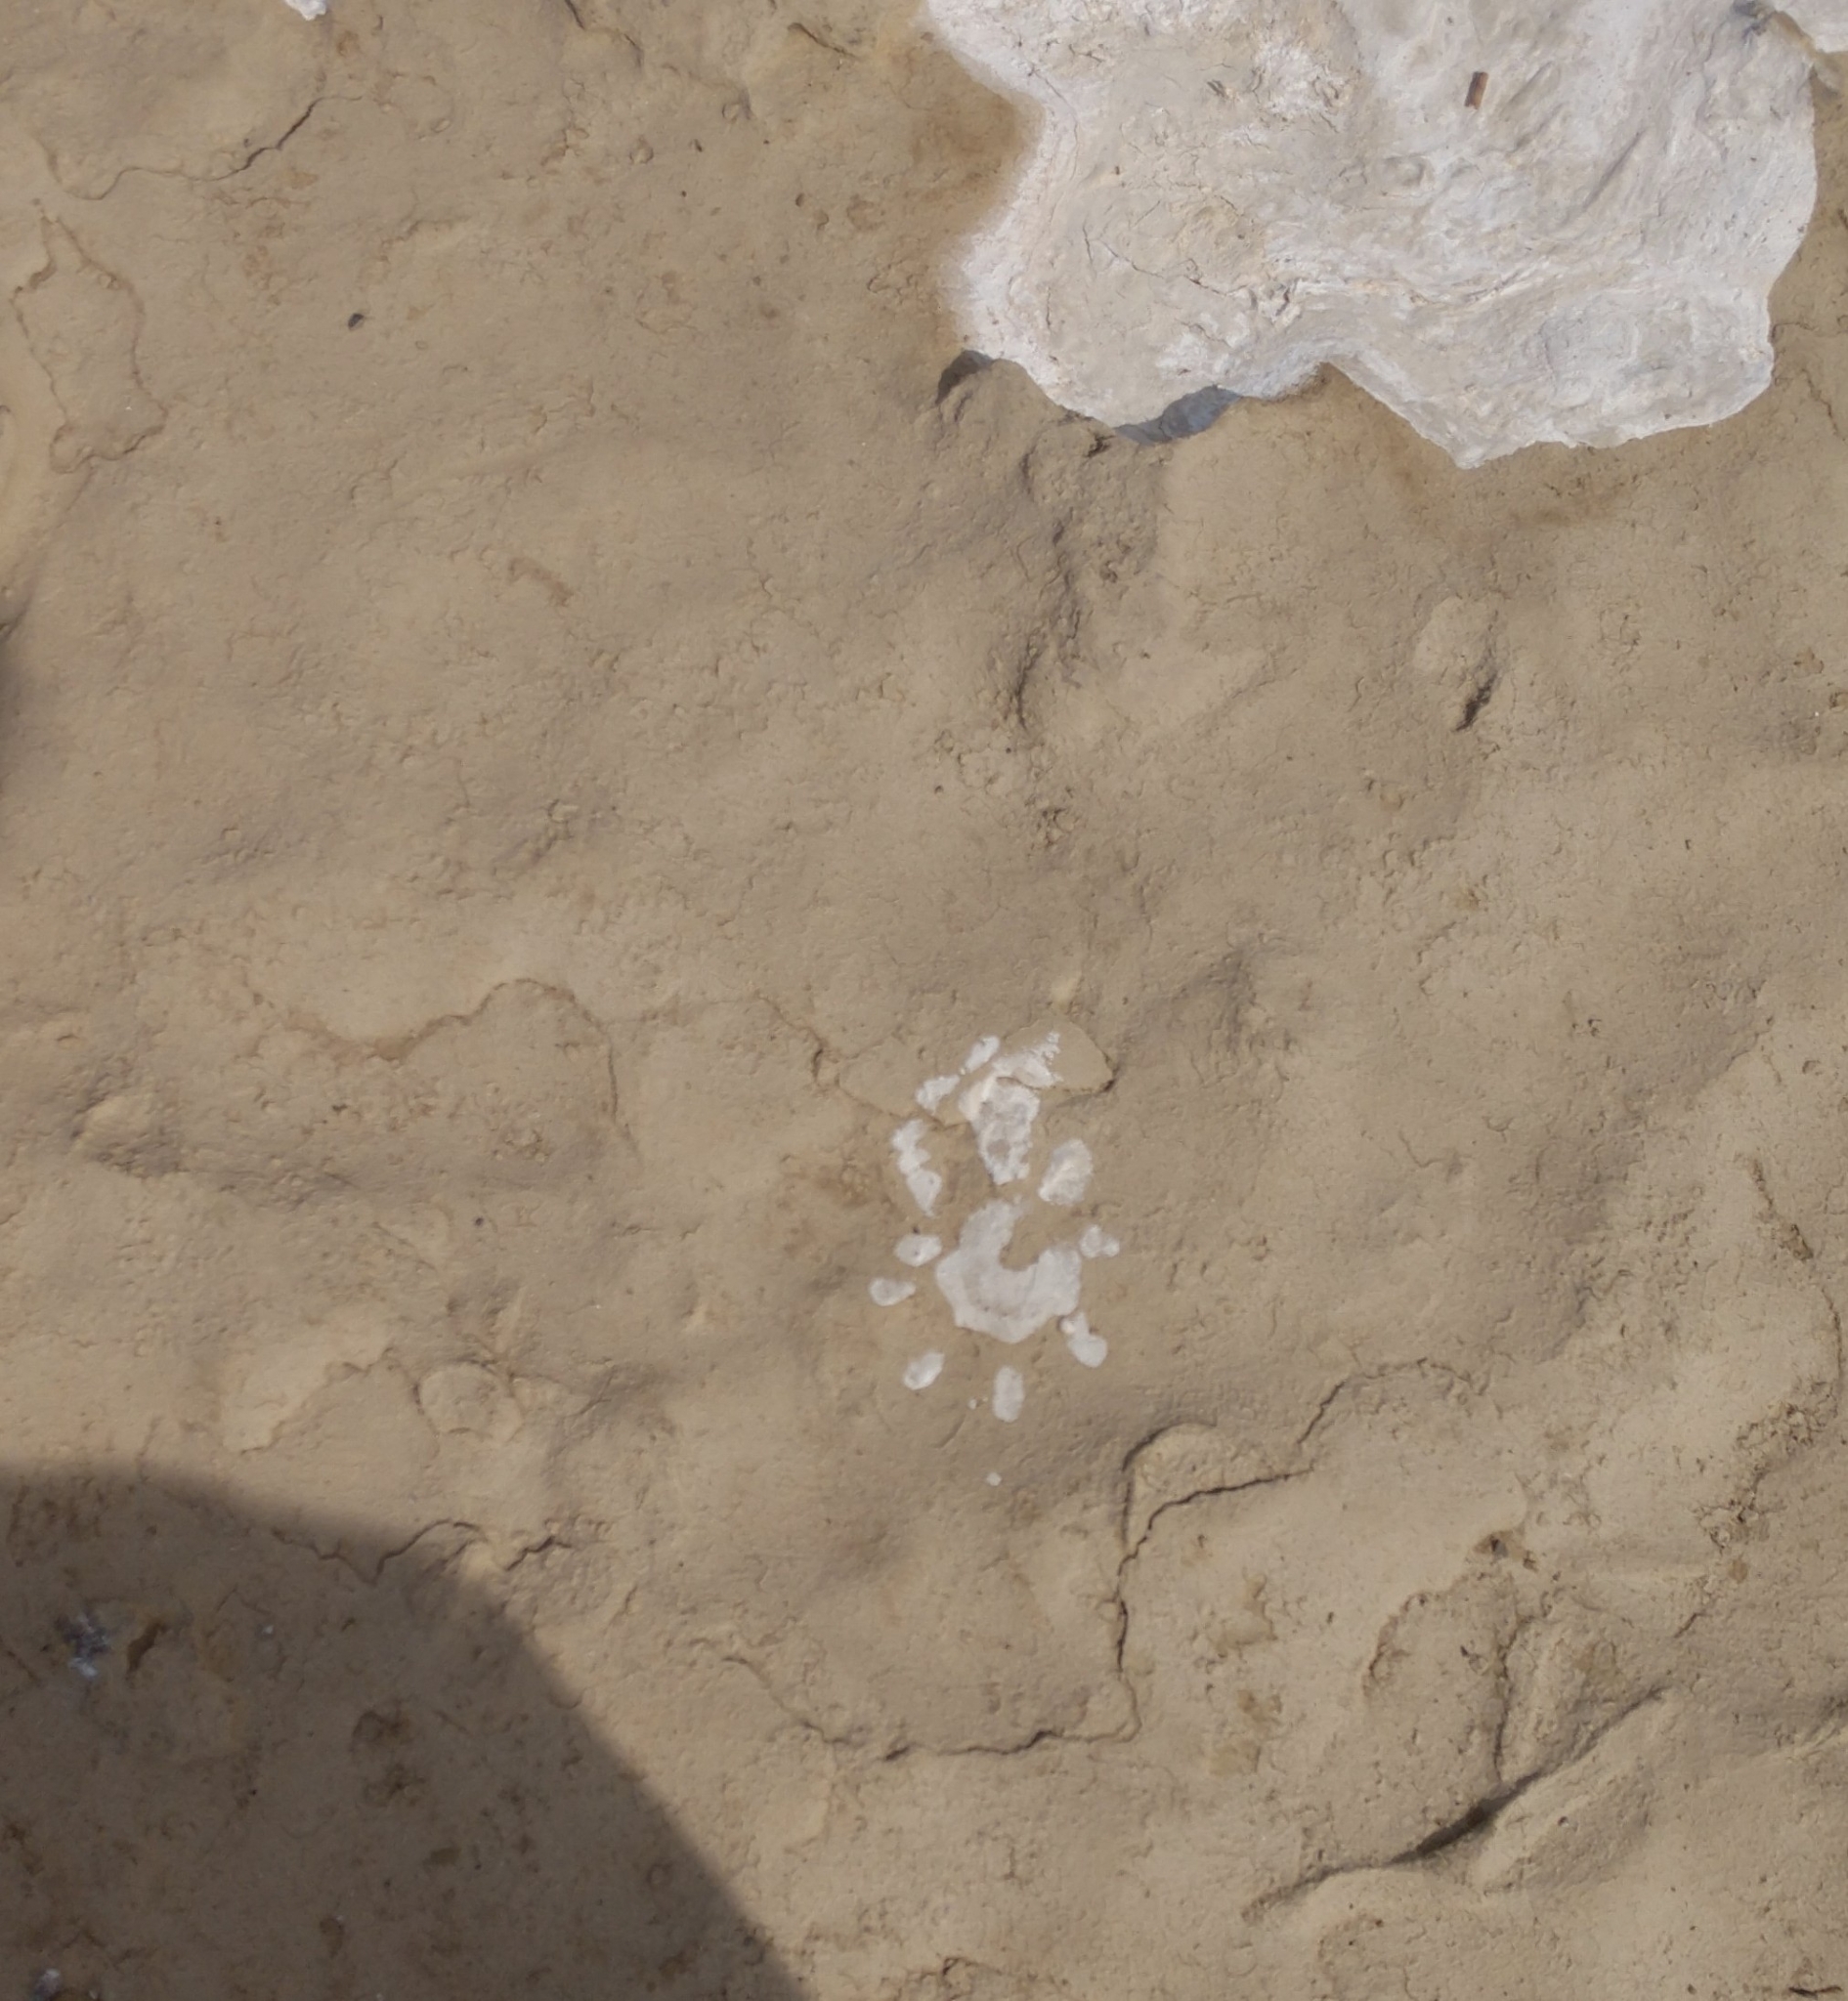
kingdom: Animalia
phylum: Chordata
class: Mammalia
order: Didelphimorphia
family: Didelphidae
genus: Didelphis
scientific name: Didelphis virginiana
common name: Virginia opossum
